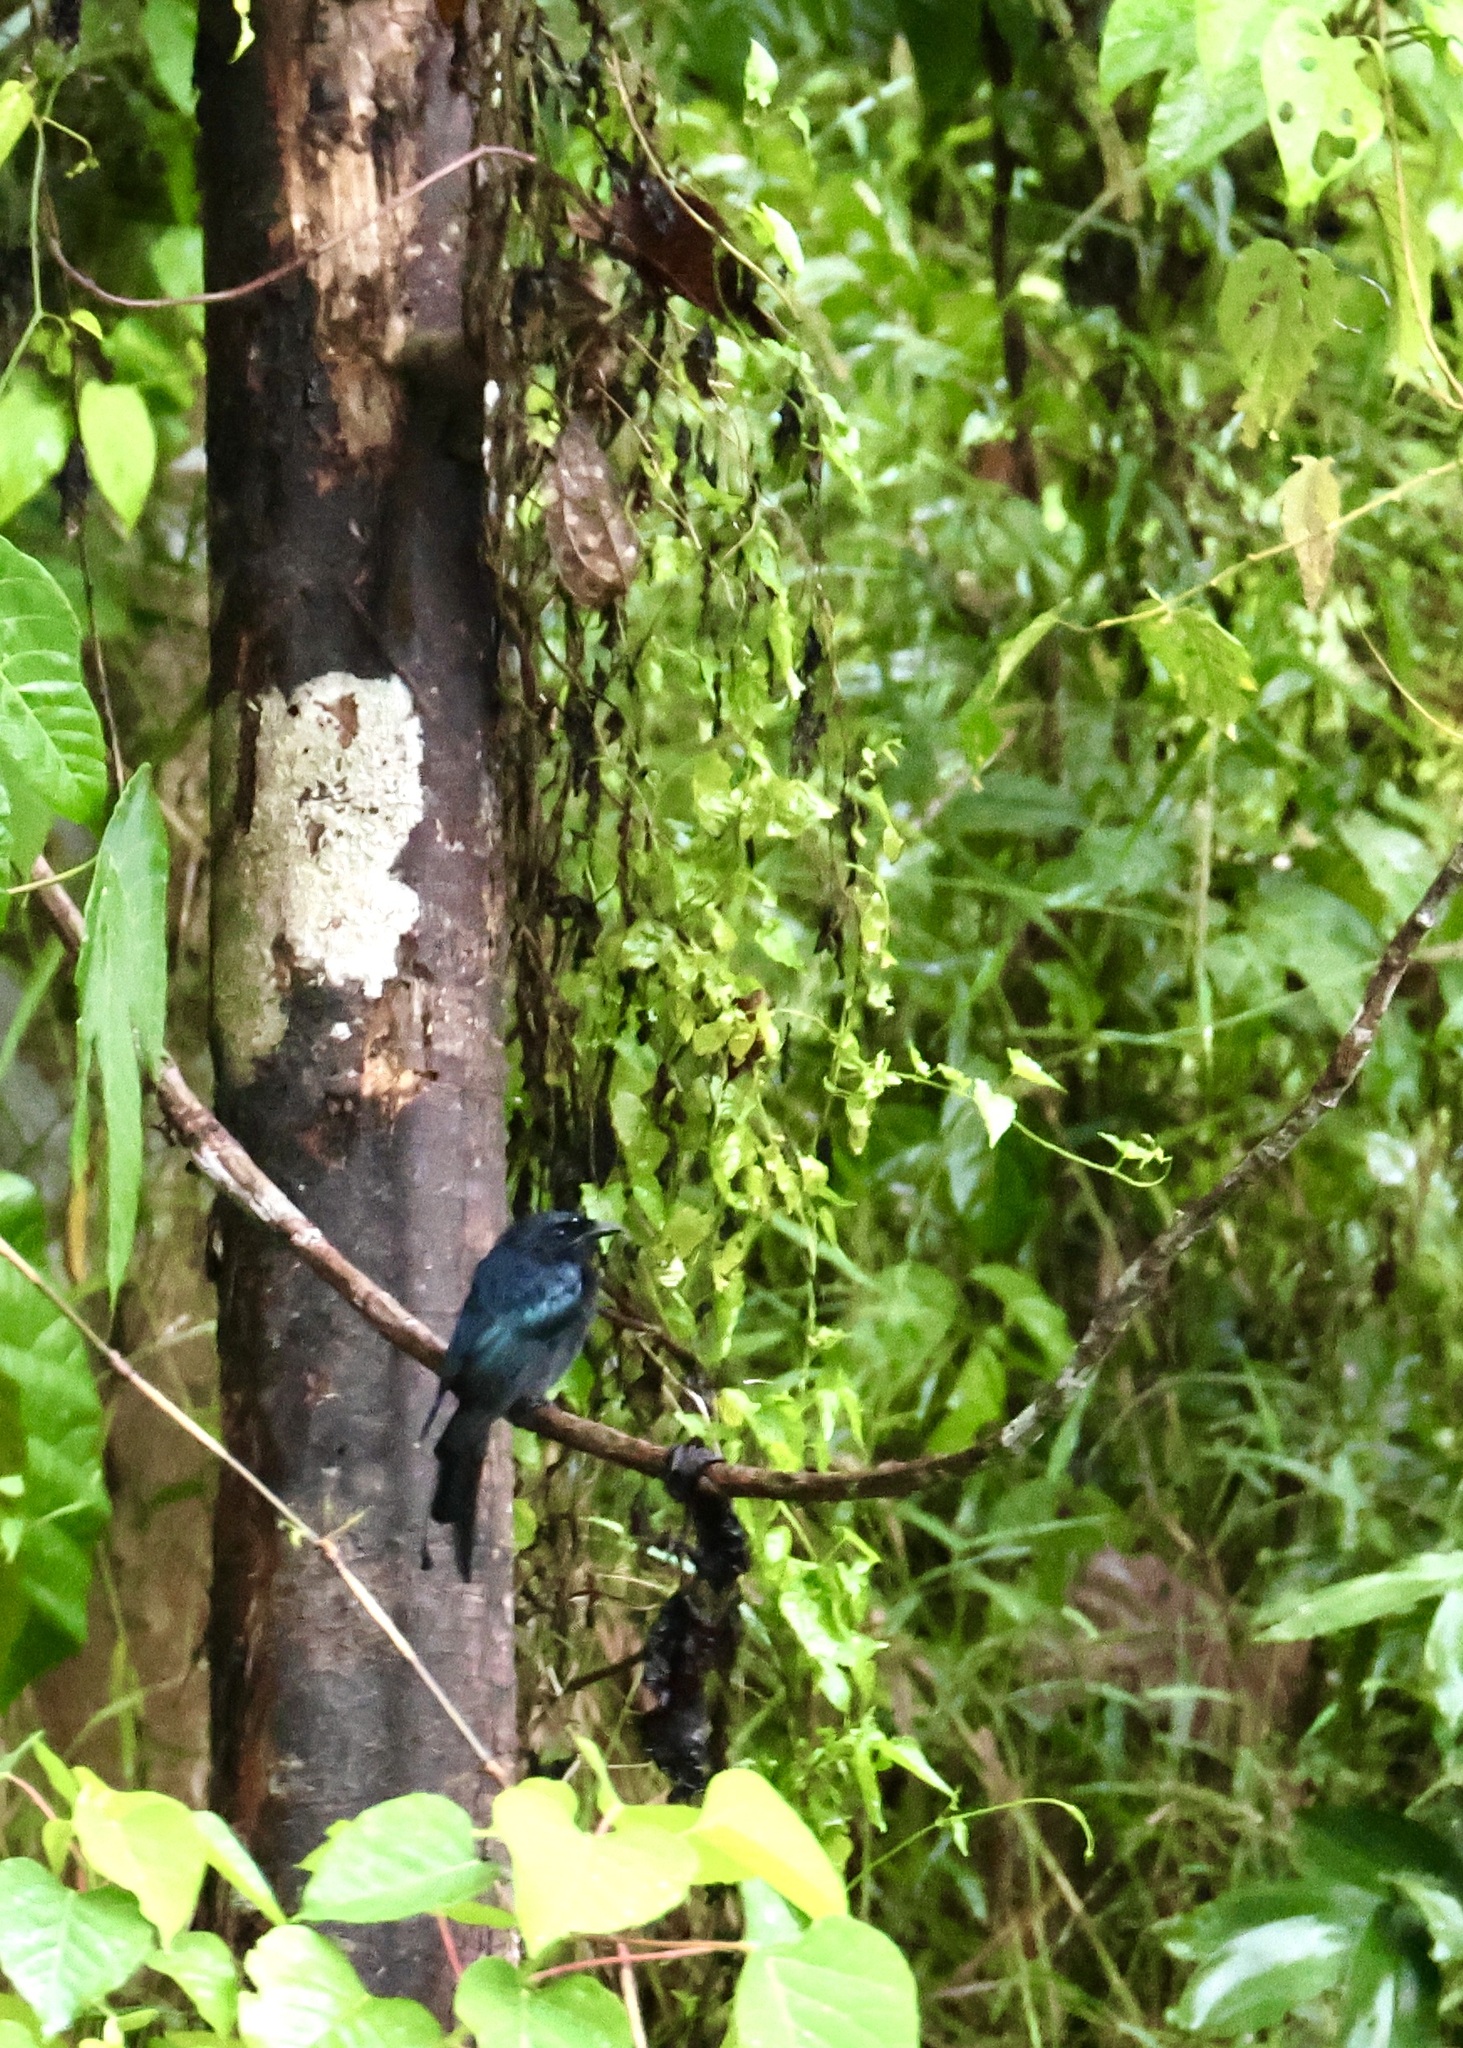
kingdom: Animalia
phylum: Chordata
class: Aves
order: Passeriformes
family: Dicruridae
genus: Dicrurus
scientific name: Dicrurus paradiseus
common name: Greater racket-tailed drongo
